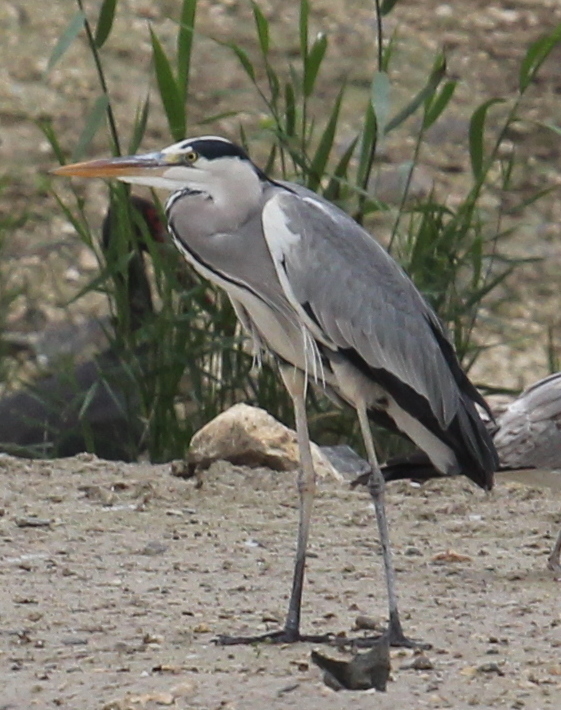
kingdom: Animalia
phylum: Chordata
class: Aves
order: Pelecaniformes
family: Ardeidae
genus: Ardea
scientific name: Ardea cinerea
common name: Grey heron
